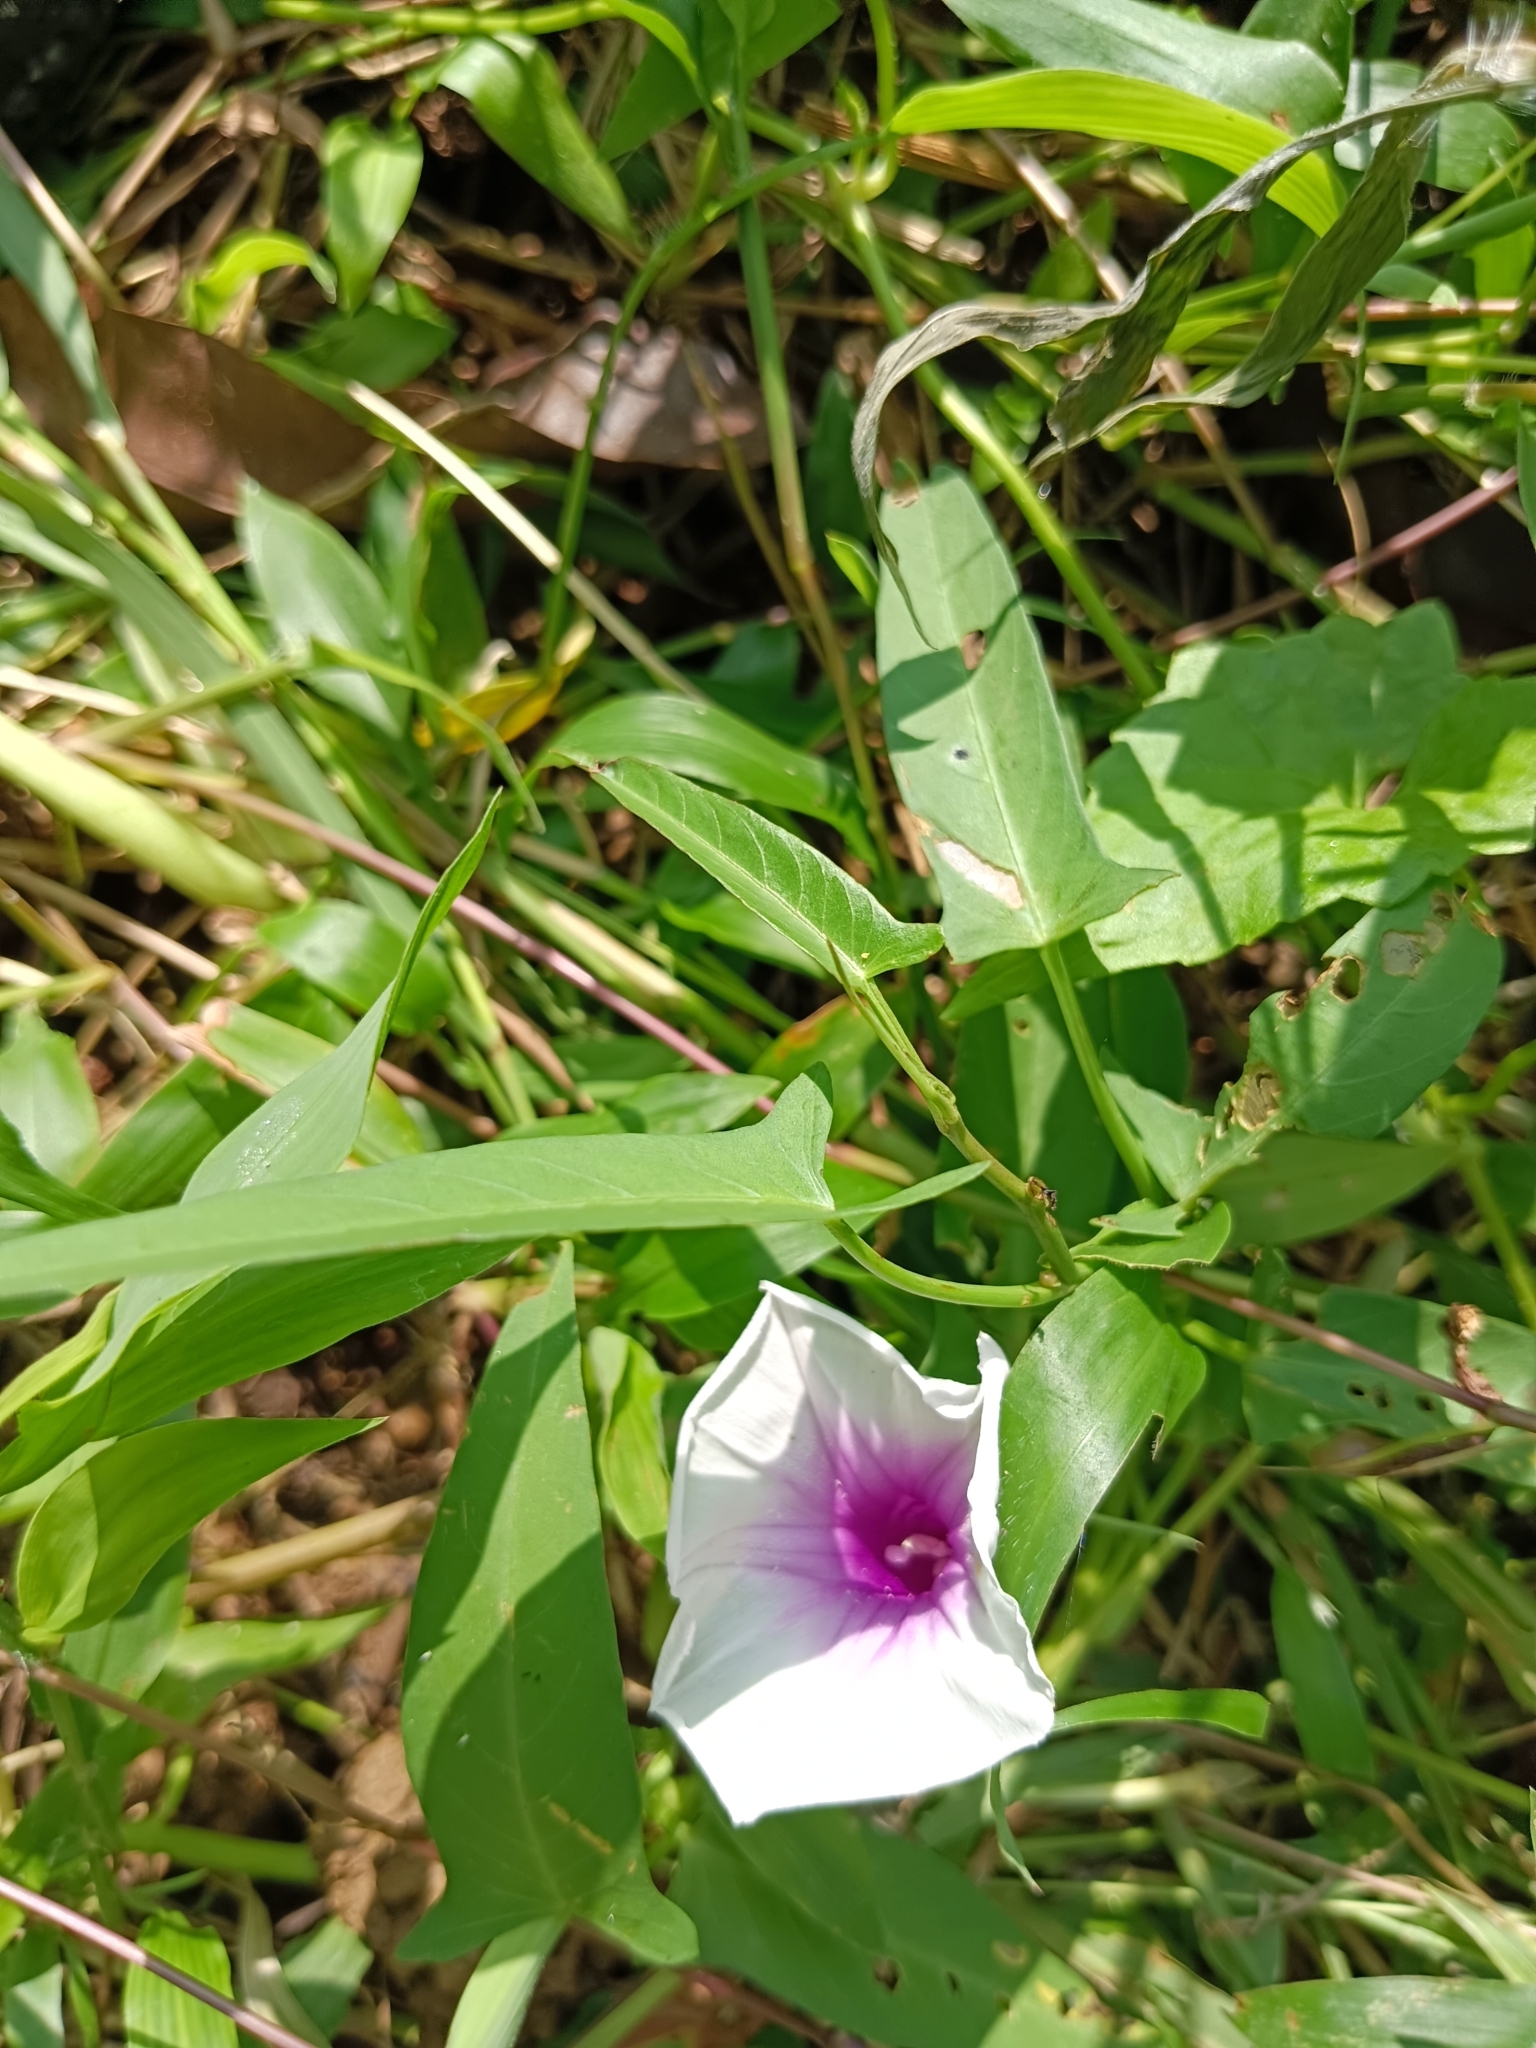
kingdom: Plantae
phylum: Tracheophyta
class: Magnoliopsida
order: Solanales
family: Convolvulaceae
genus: Ipomoea
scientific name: Ipomoea aquatica
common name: Swamp morning-glory
